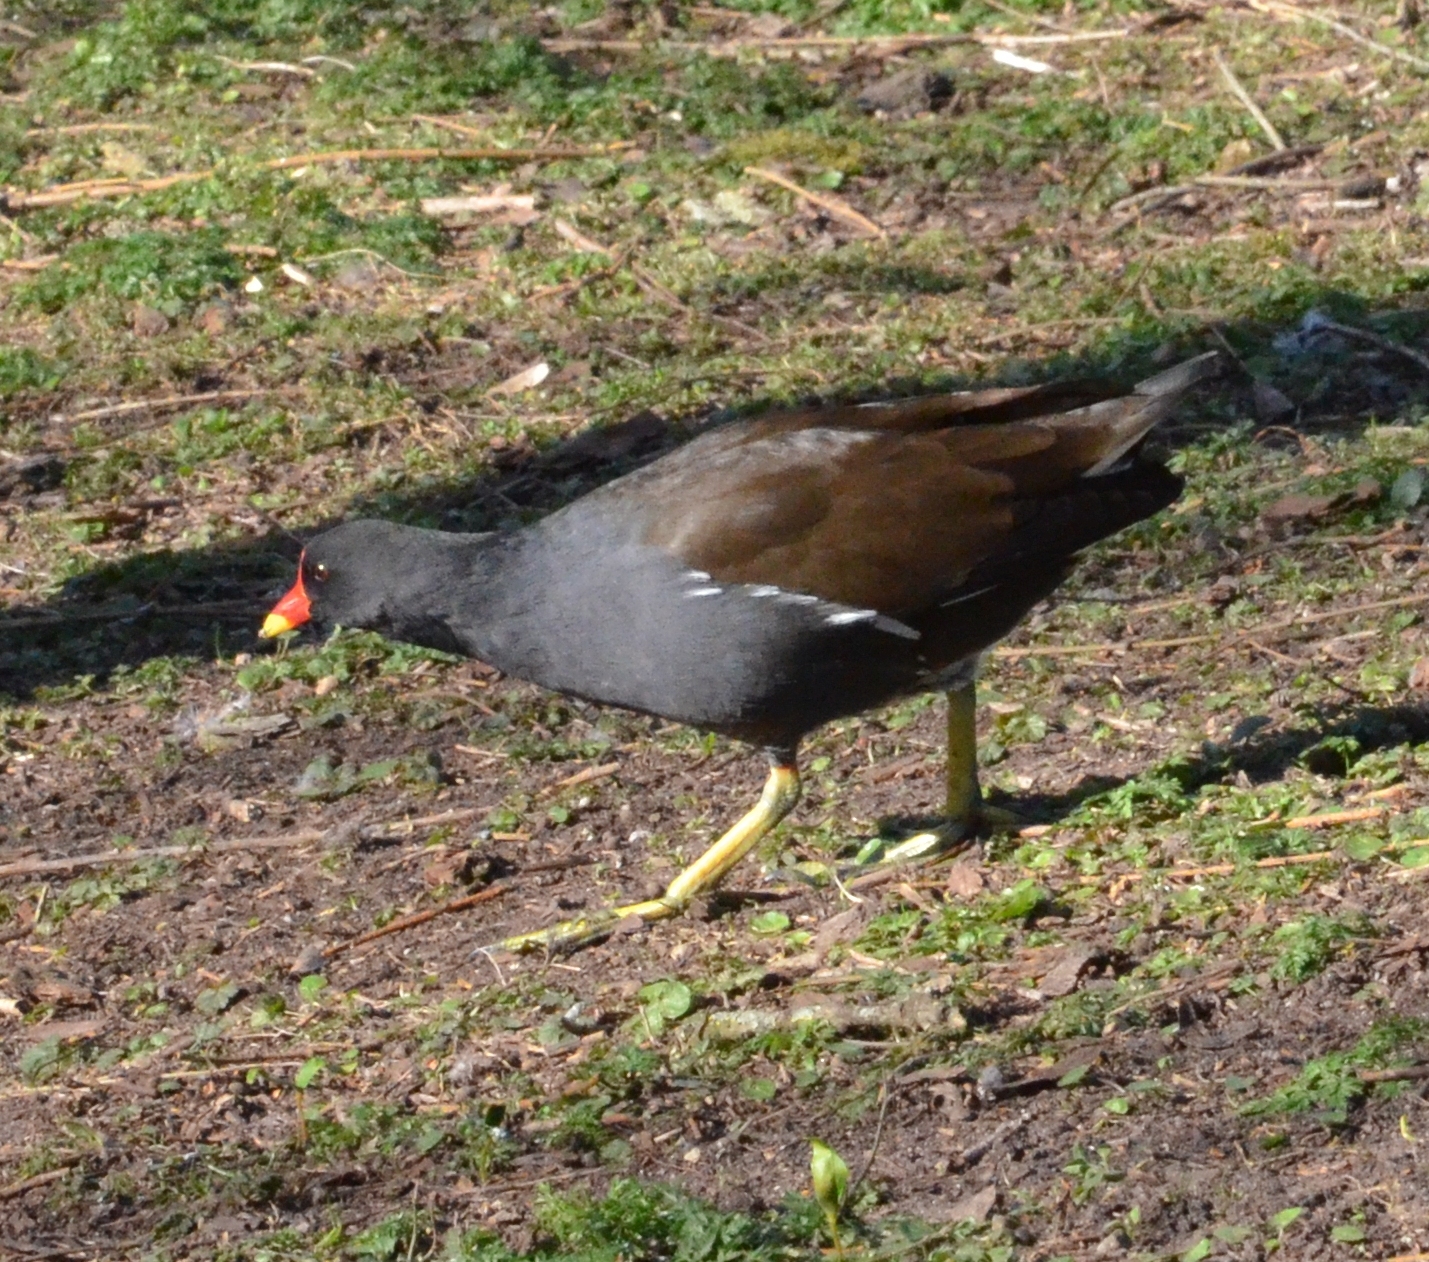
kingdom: Animalia
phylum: Chordata
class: Aves
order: Gruiformes
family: Rallidae
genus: Gallinula
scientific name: Gallinula chloropus
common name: Common moorhen
